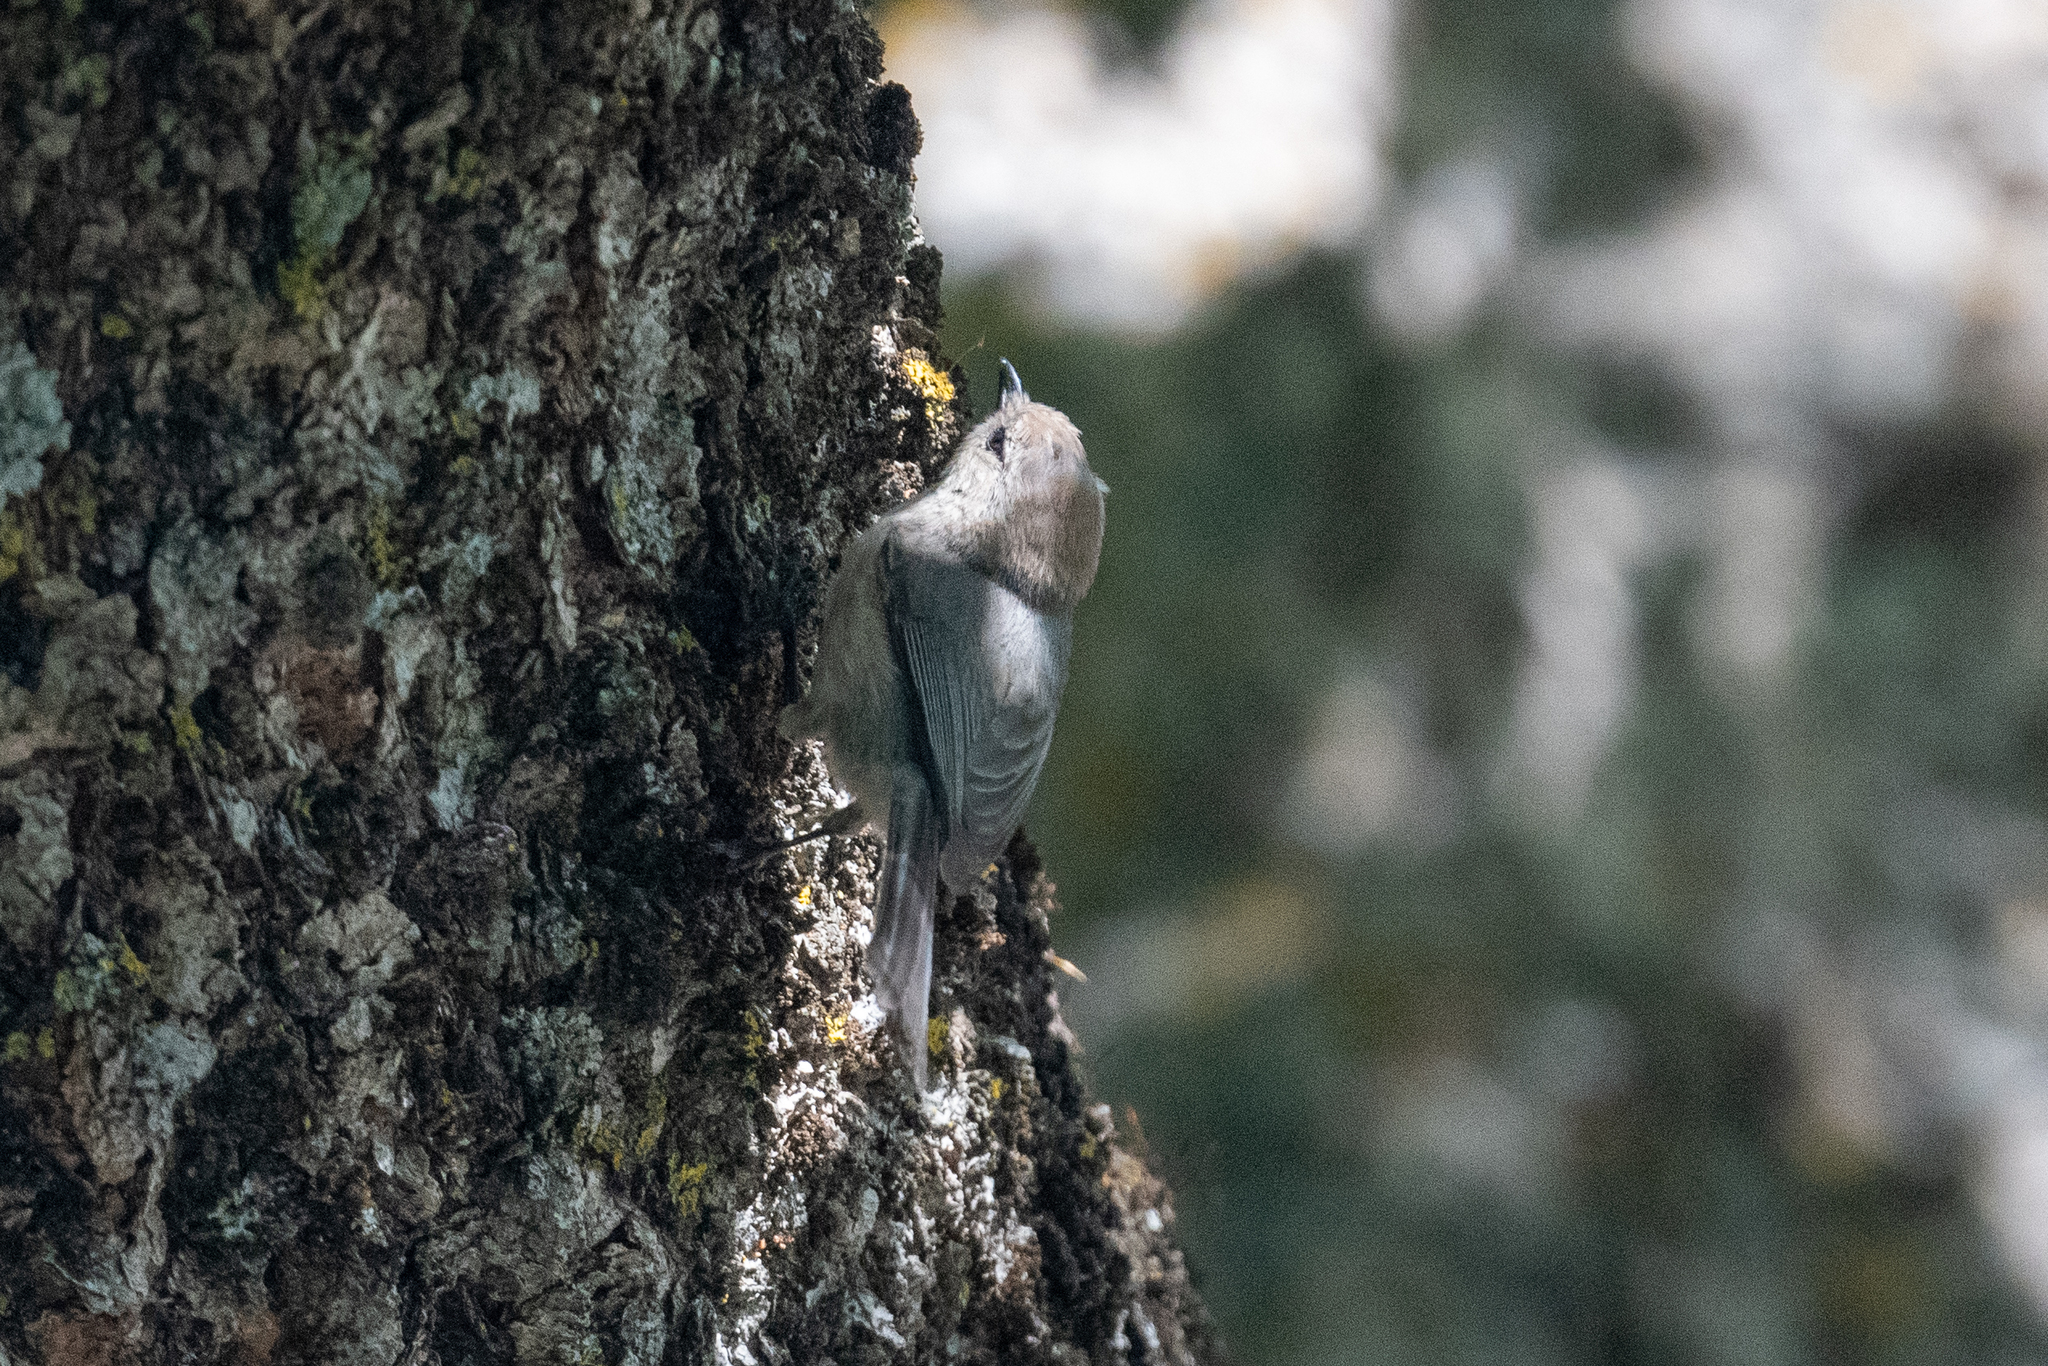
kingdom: Animalia
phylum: Chordata
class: Aves
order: Passeriformes
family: Aegithalidae
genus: Psaltriparus
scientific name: Psaltriparus minimus
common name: American bushtit
